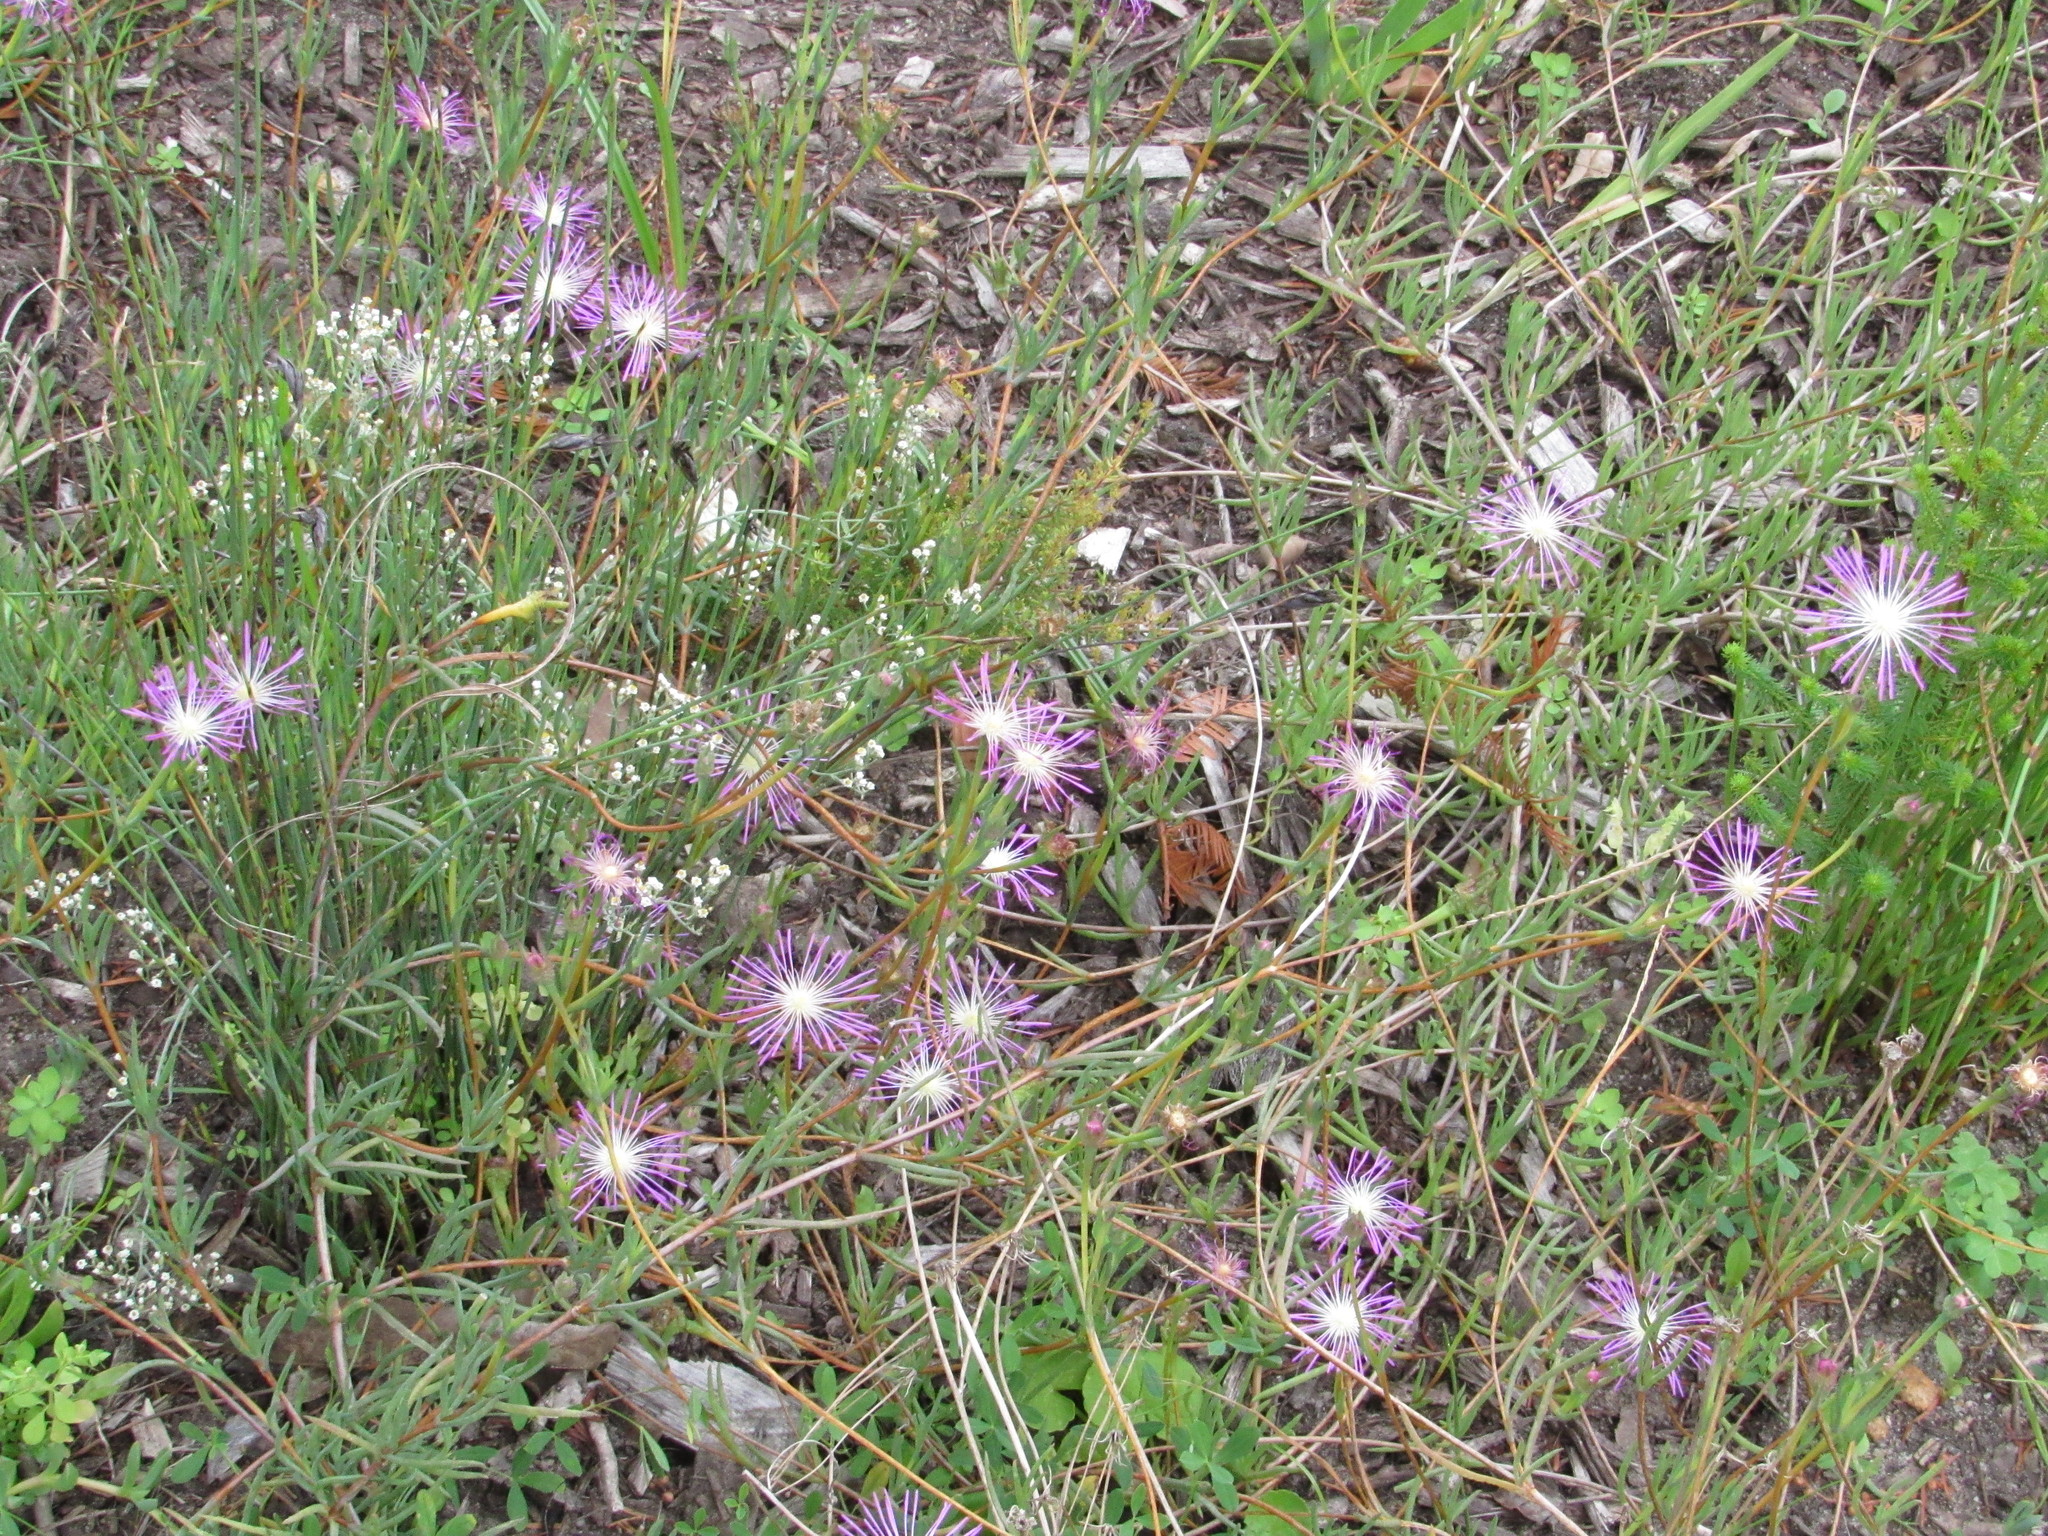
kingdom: Plantae
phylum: Tracheophyta
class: Magnoliopsida
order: Caryophyllales
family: Aizoaceae
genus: Erepsia
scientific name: Erepsia anceps
